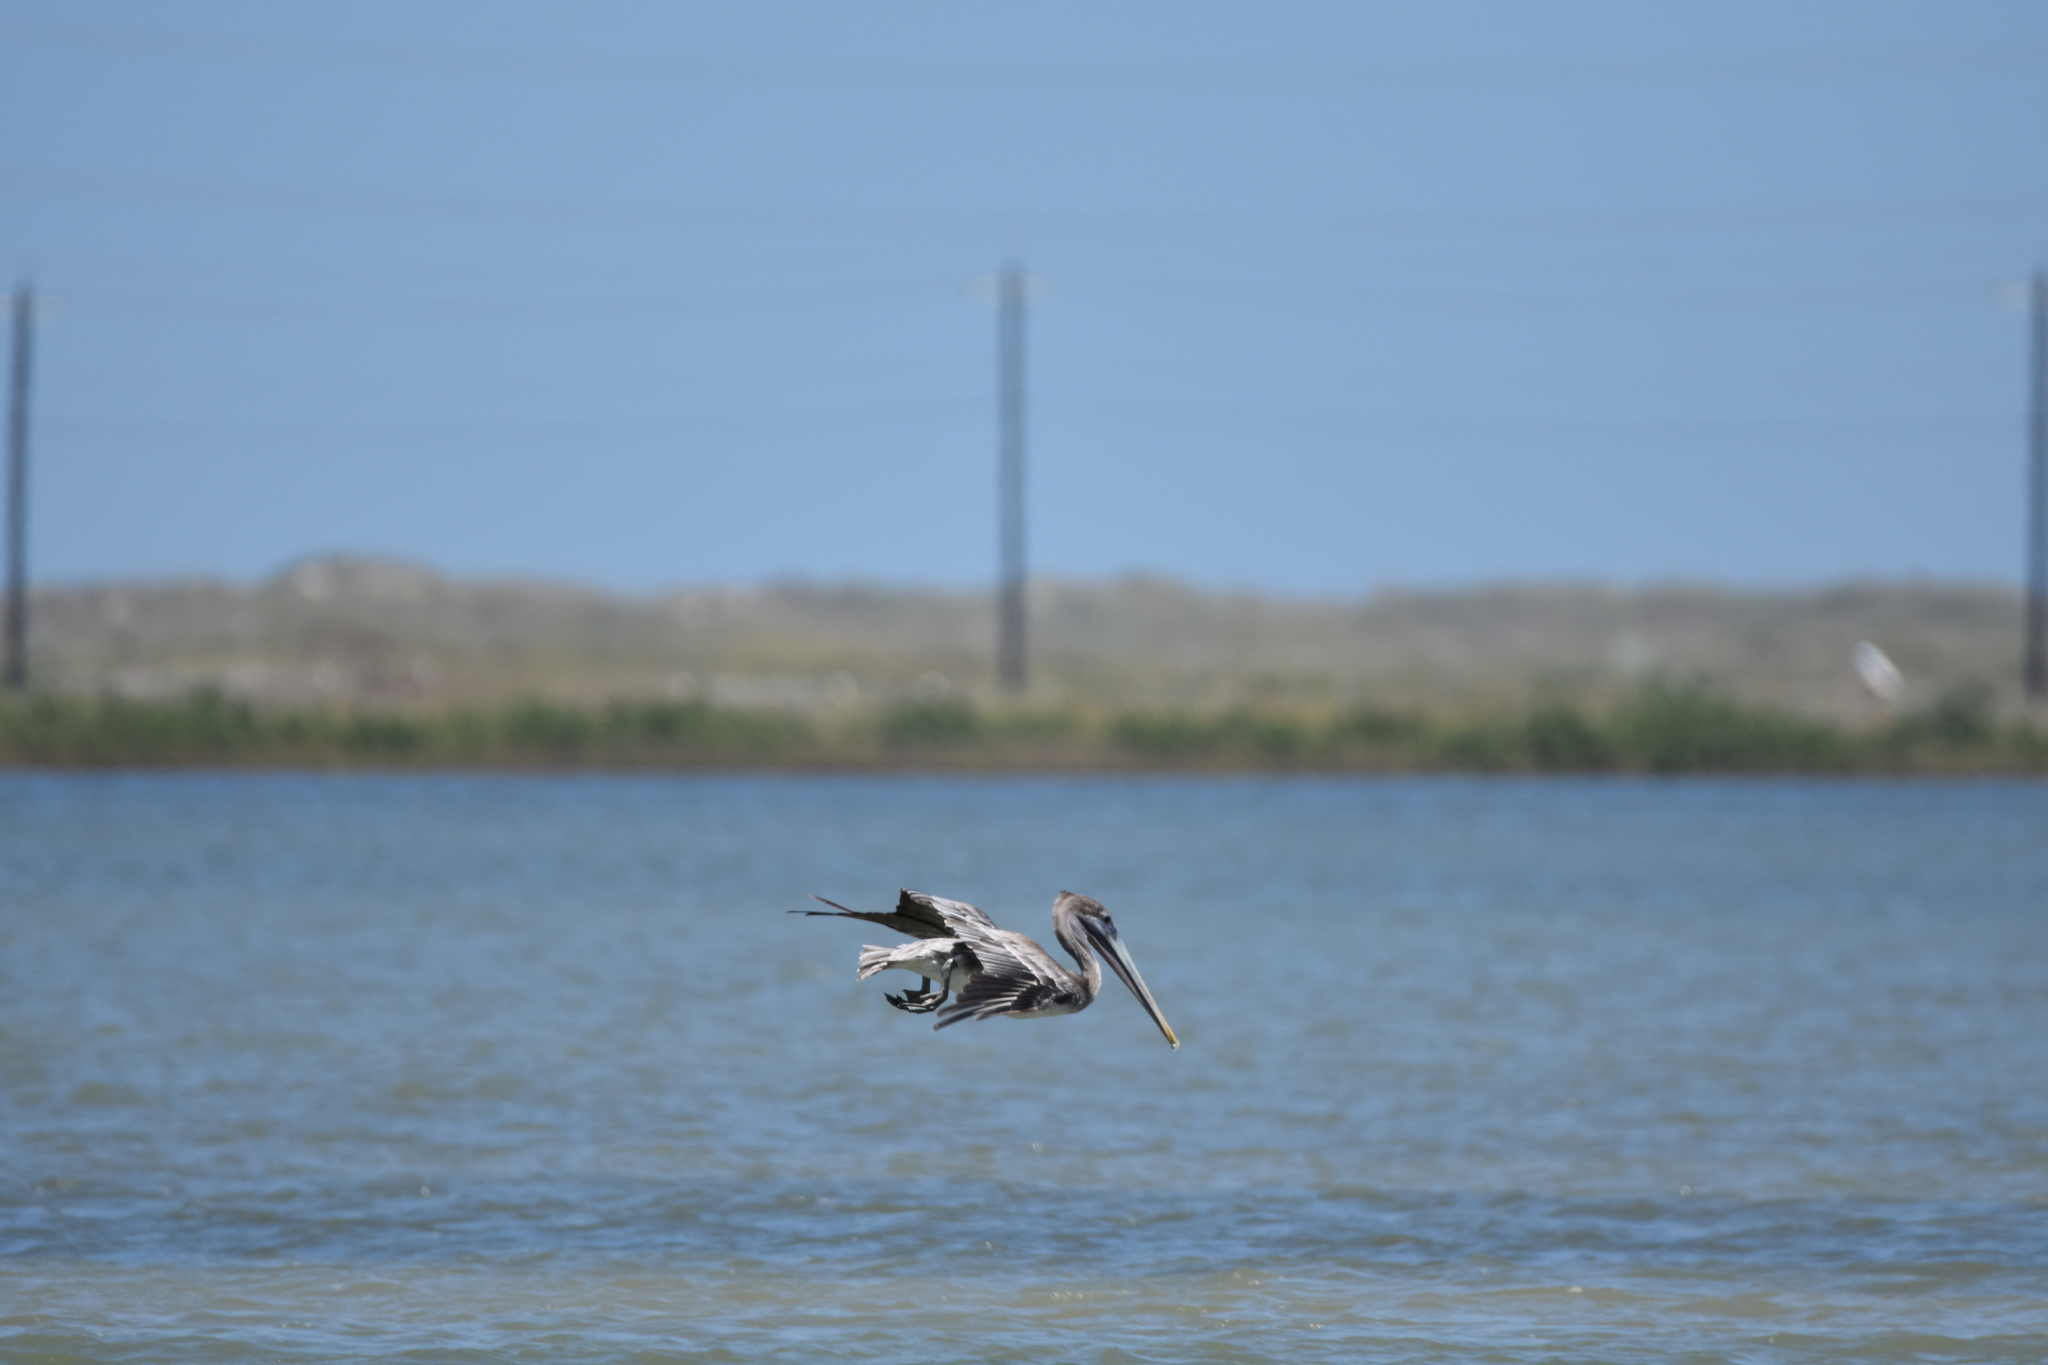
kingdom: Animalia
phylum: Chordata
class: Aves
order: Pelecaniformes
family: Pelecanidae
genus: Pelecanus
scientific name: Pelecanus occidentalis
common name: Brown pelican
